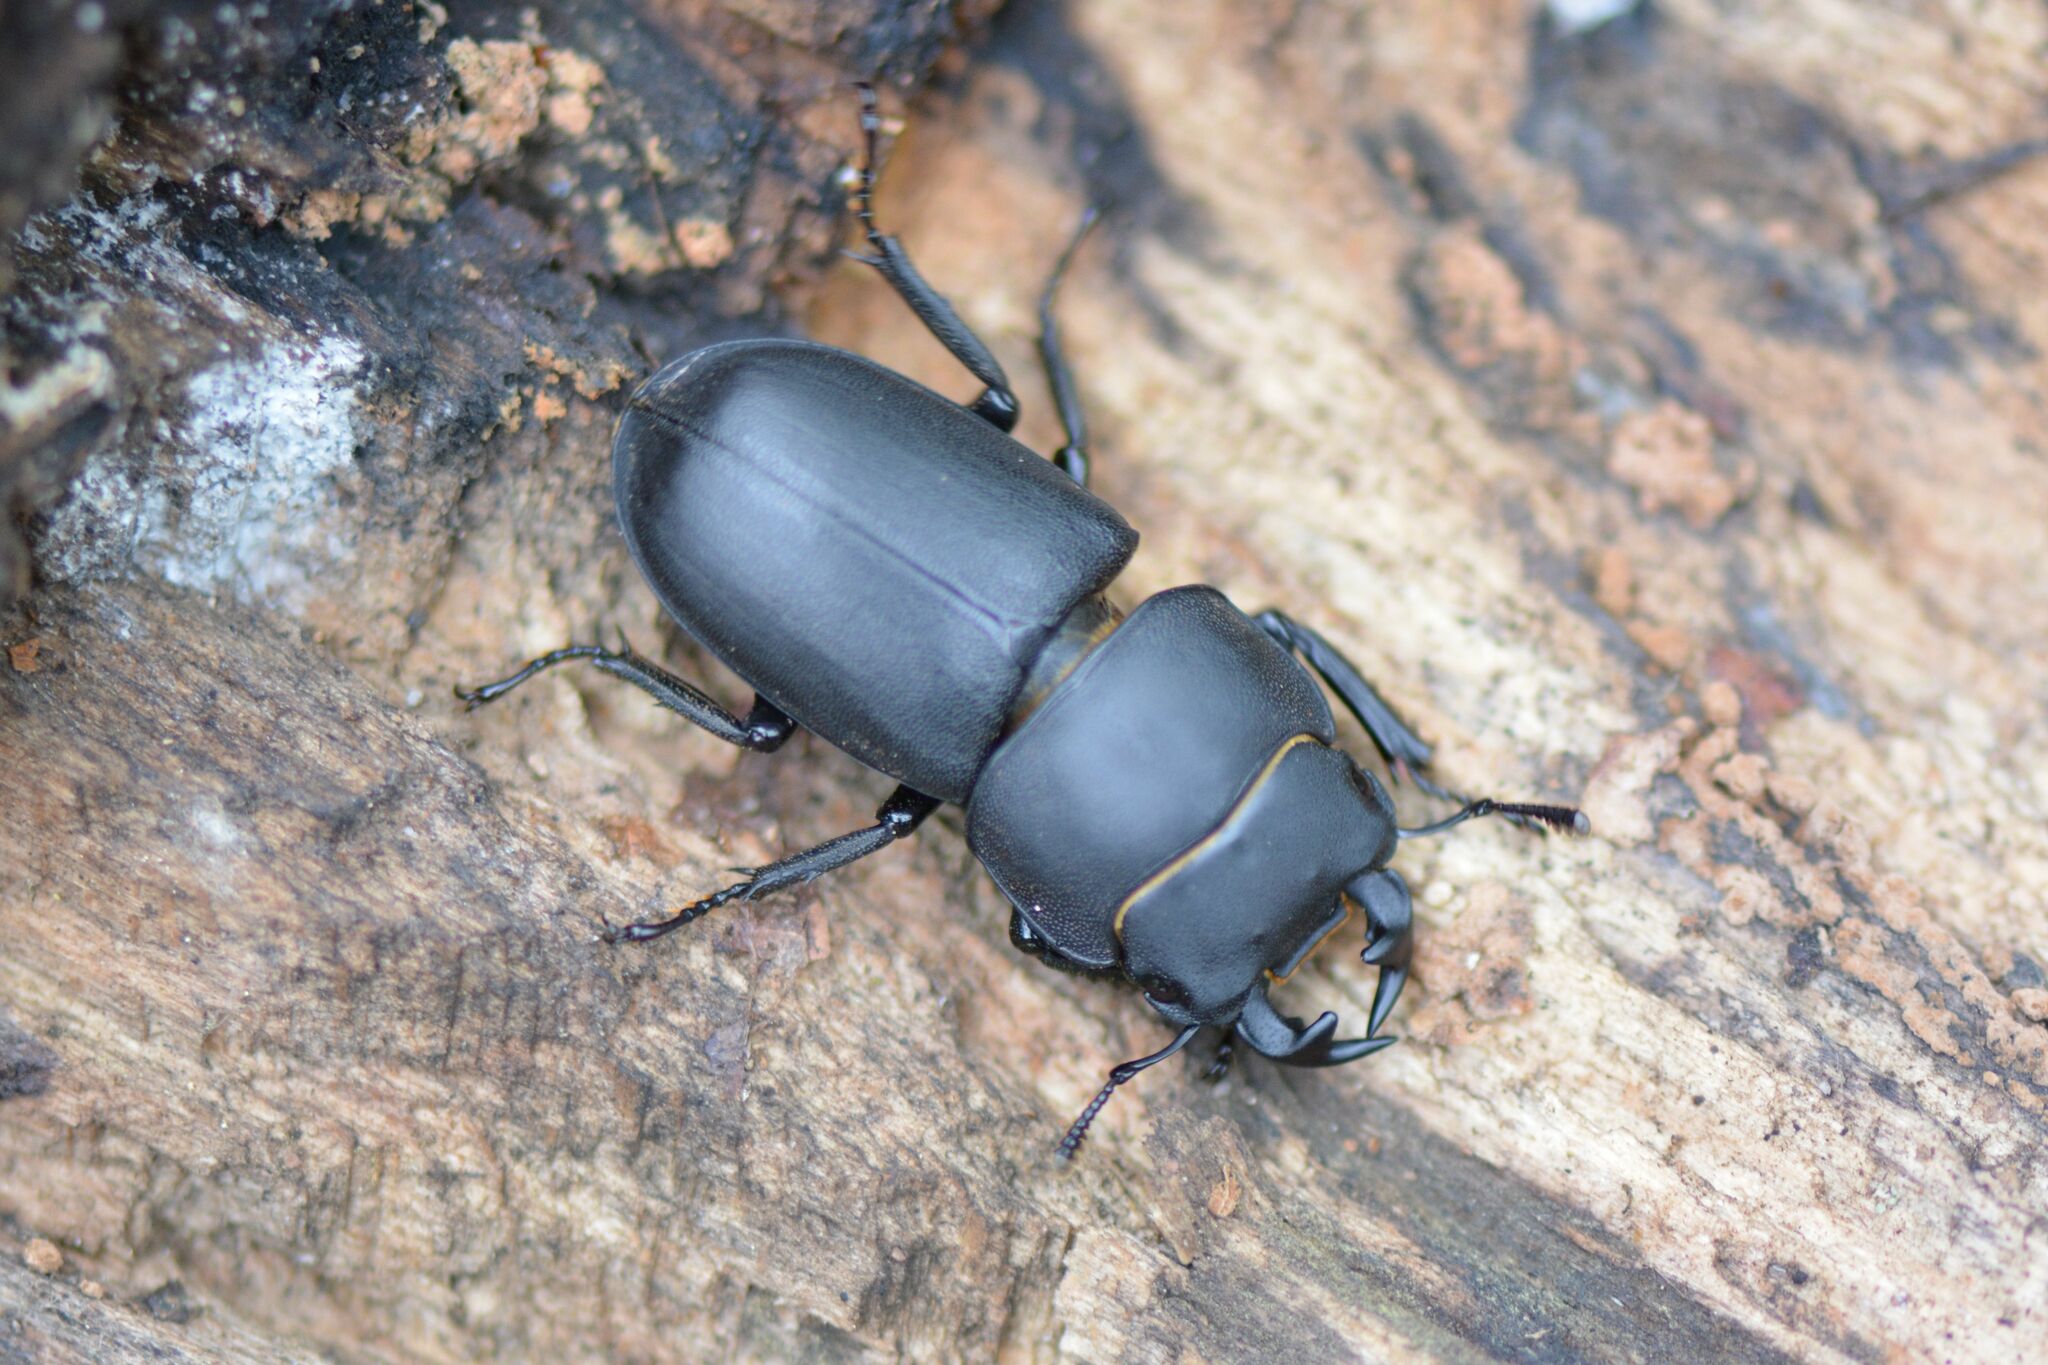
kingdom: Animalia
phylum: Arthropoda
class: Insecta
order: Coleoptera
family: Lucanidae
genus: Dorcus
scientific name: Dorcus parallelipipedus
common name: Lesser stag beetle
